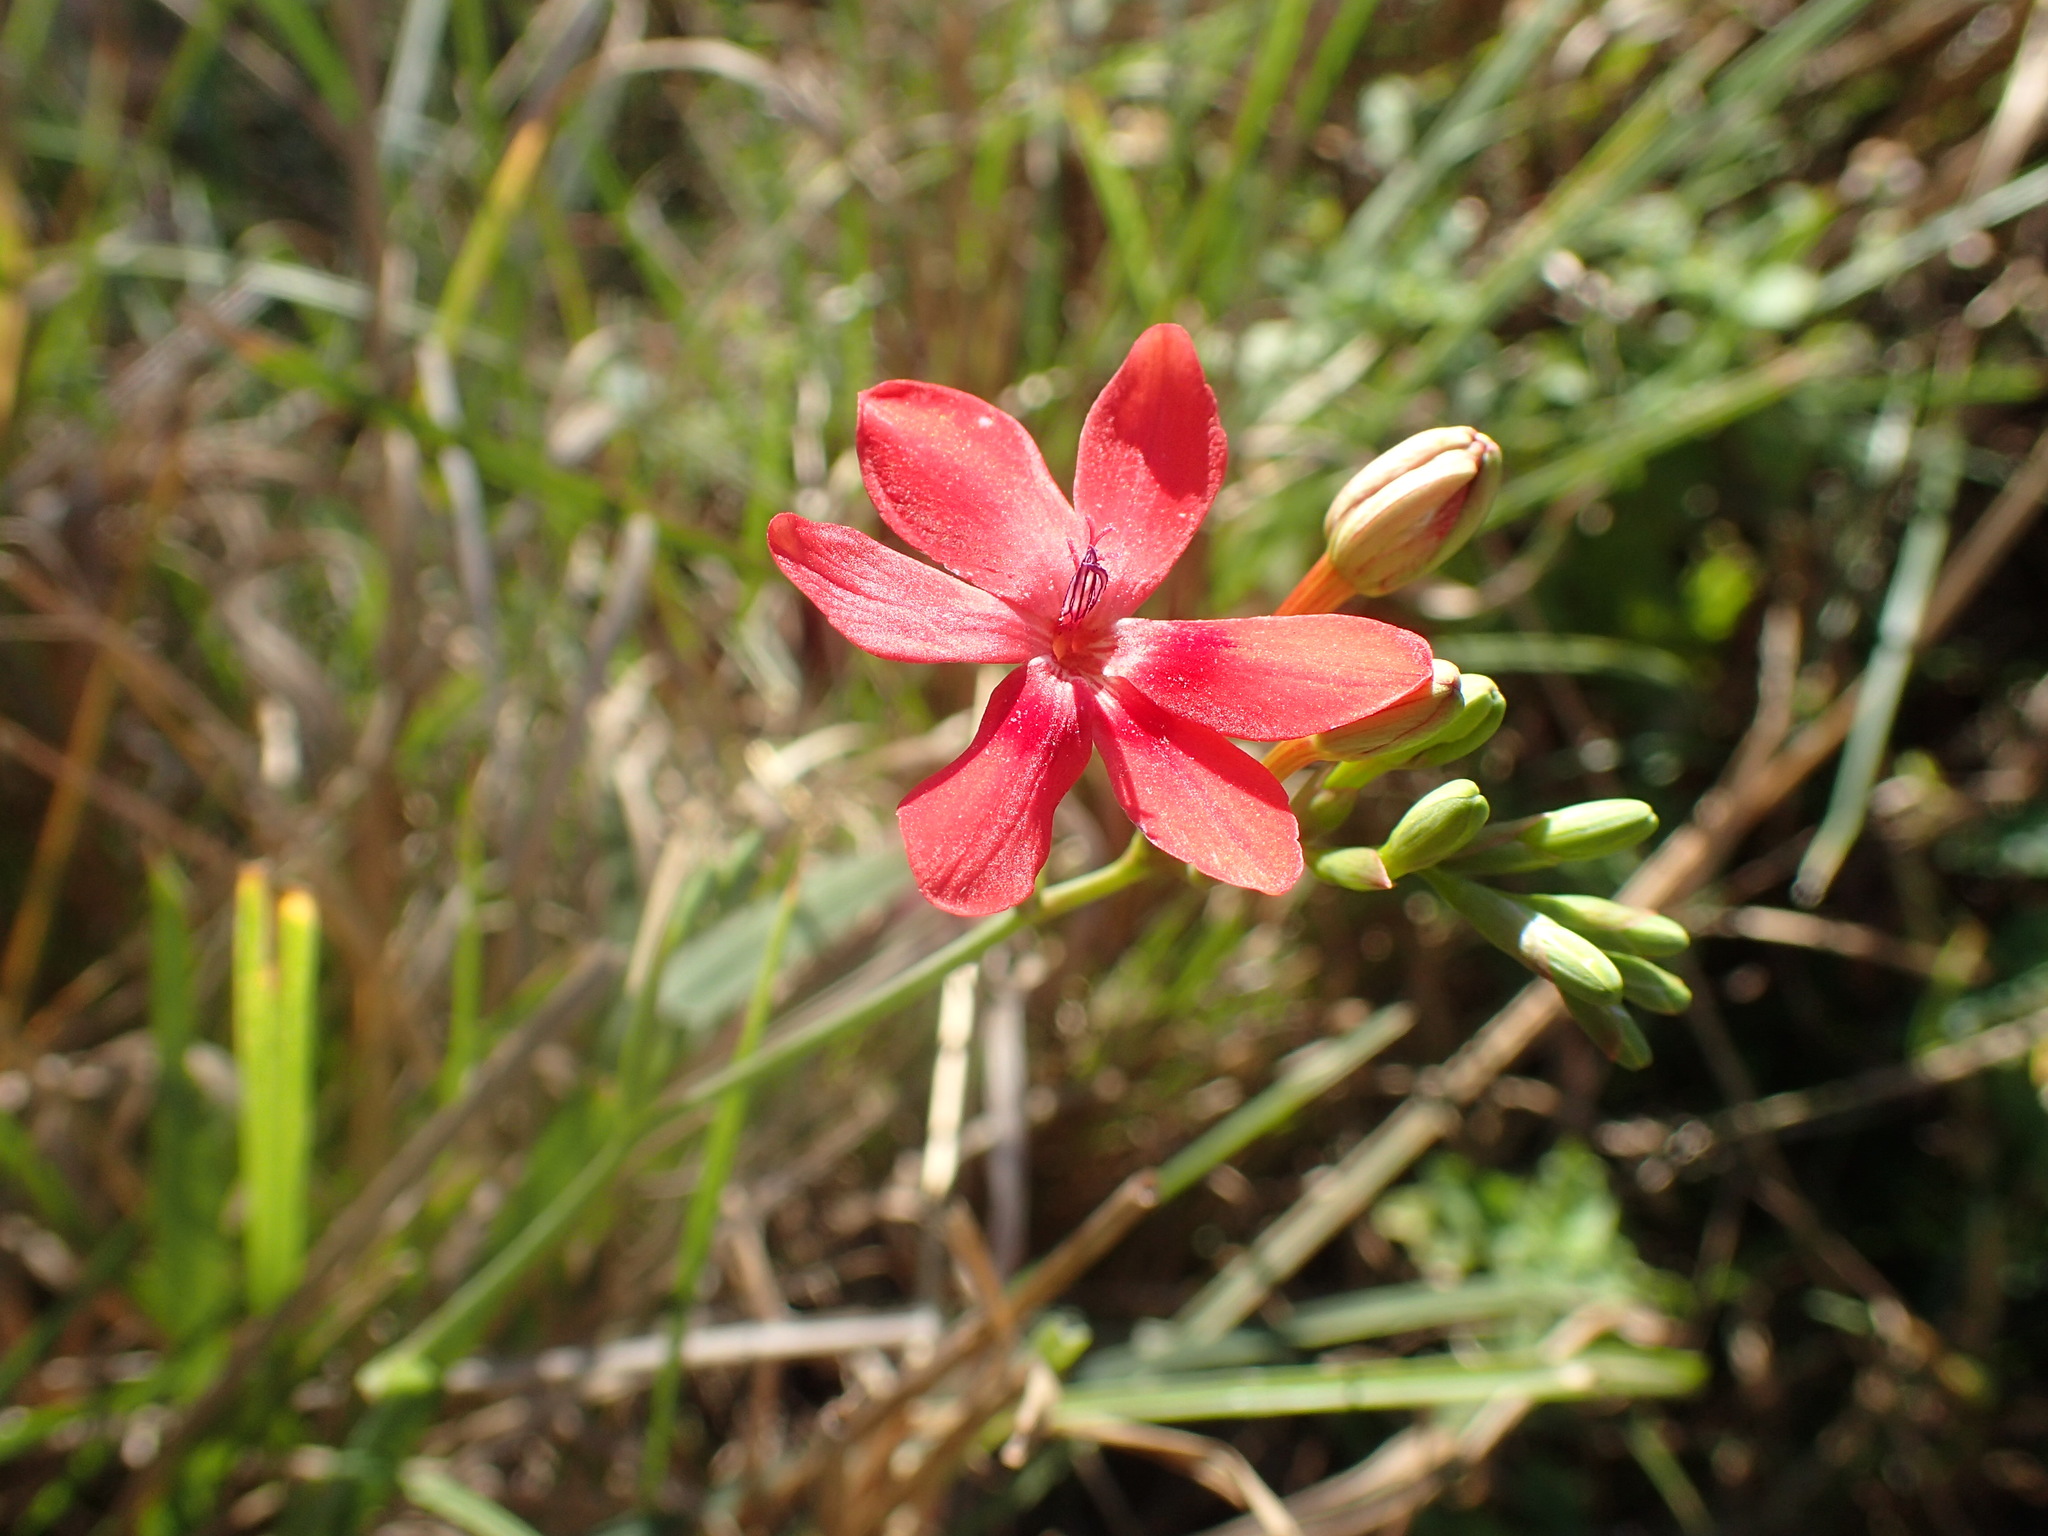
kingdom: Plantae
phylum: Tracheophyta
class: Liliopsida
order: Asparagales
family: Iridaceae
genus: Freesia
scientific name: Freesia laxa
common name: False freesia
